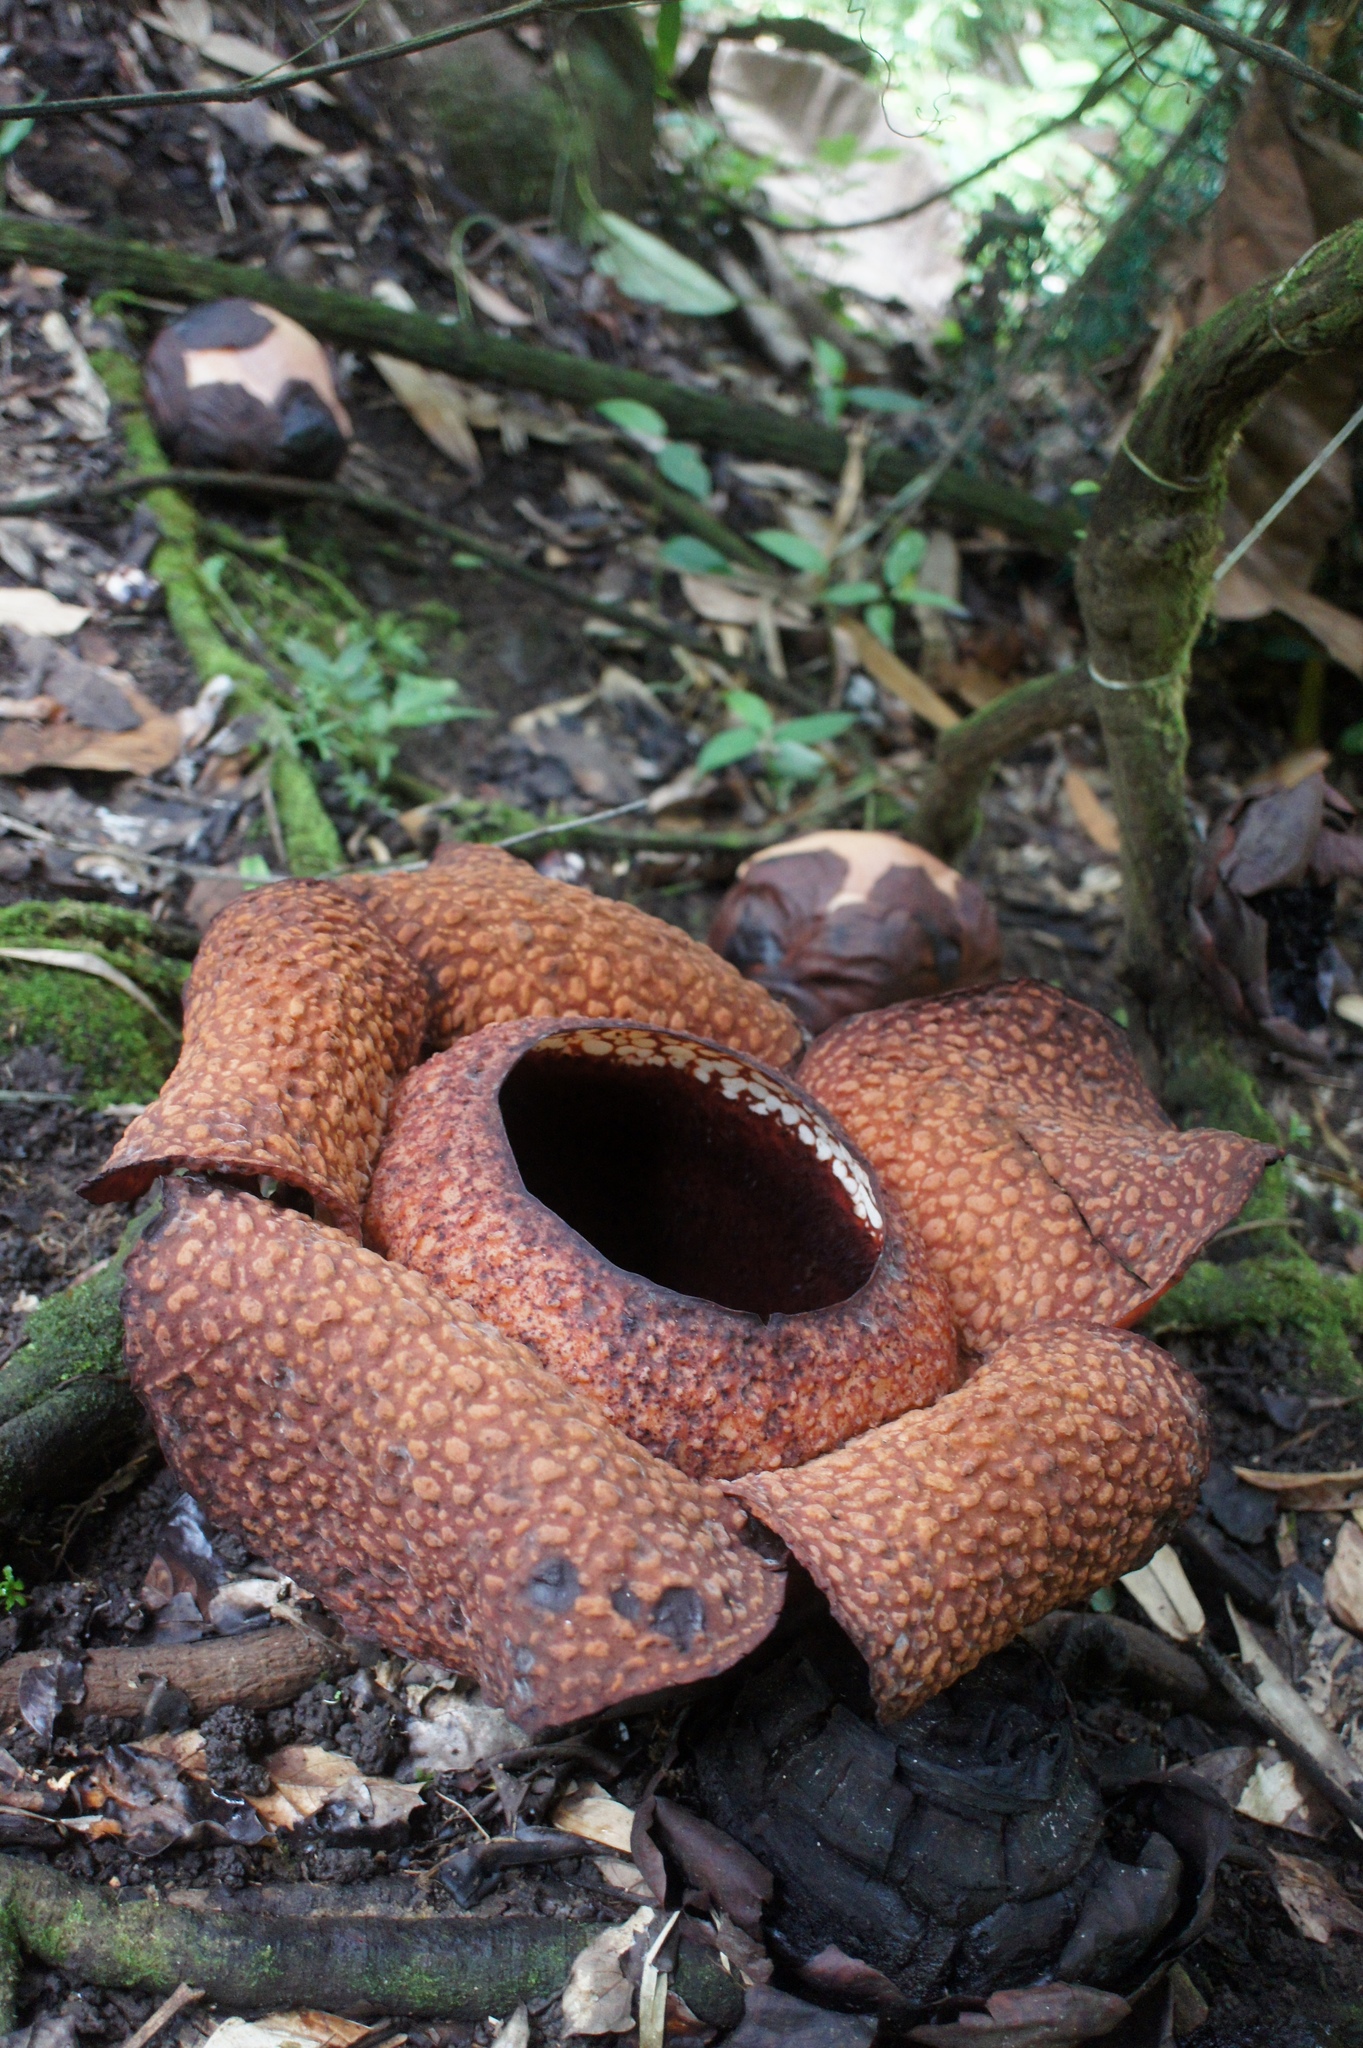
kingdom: Plantae
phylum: Tracheophyta
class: Magnoliopsida
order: Malpighiales
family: Rafflesiaceae
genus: Rafflesia
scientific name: Rafflesia keithii
